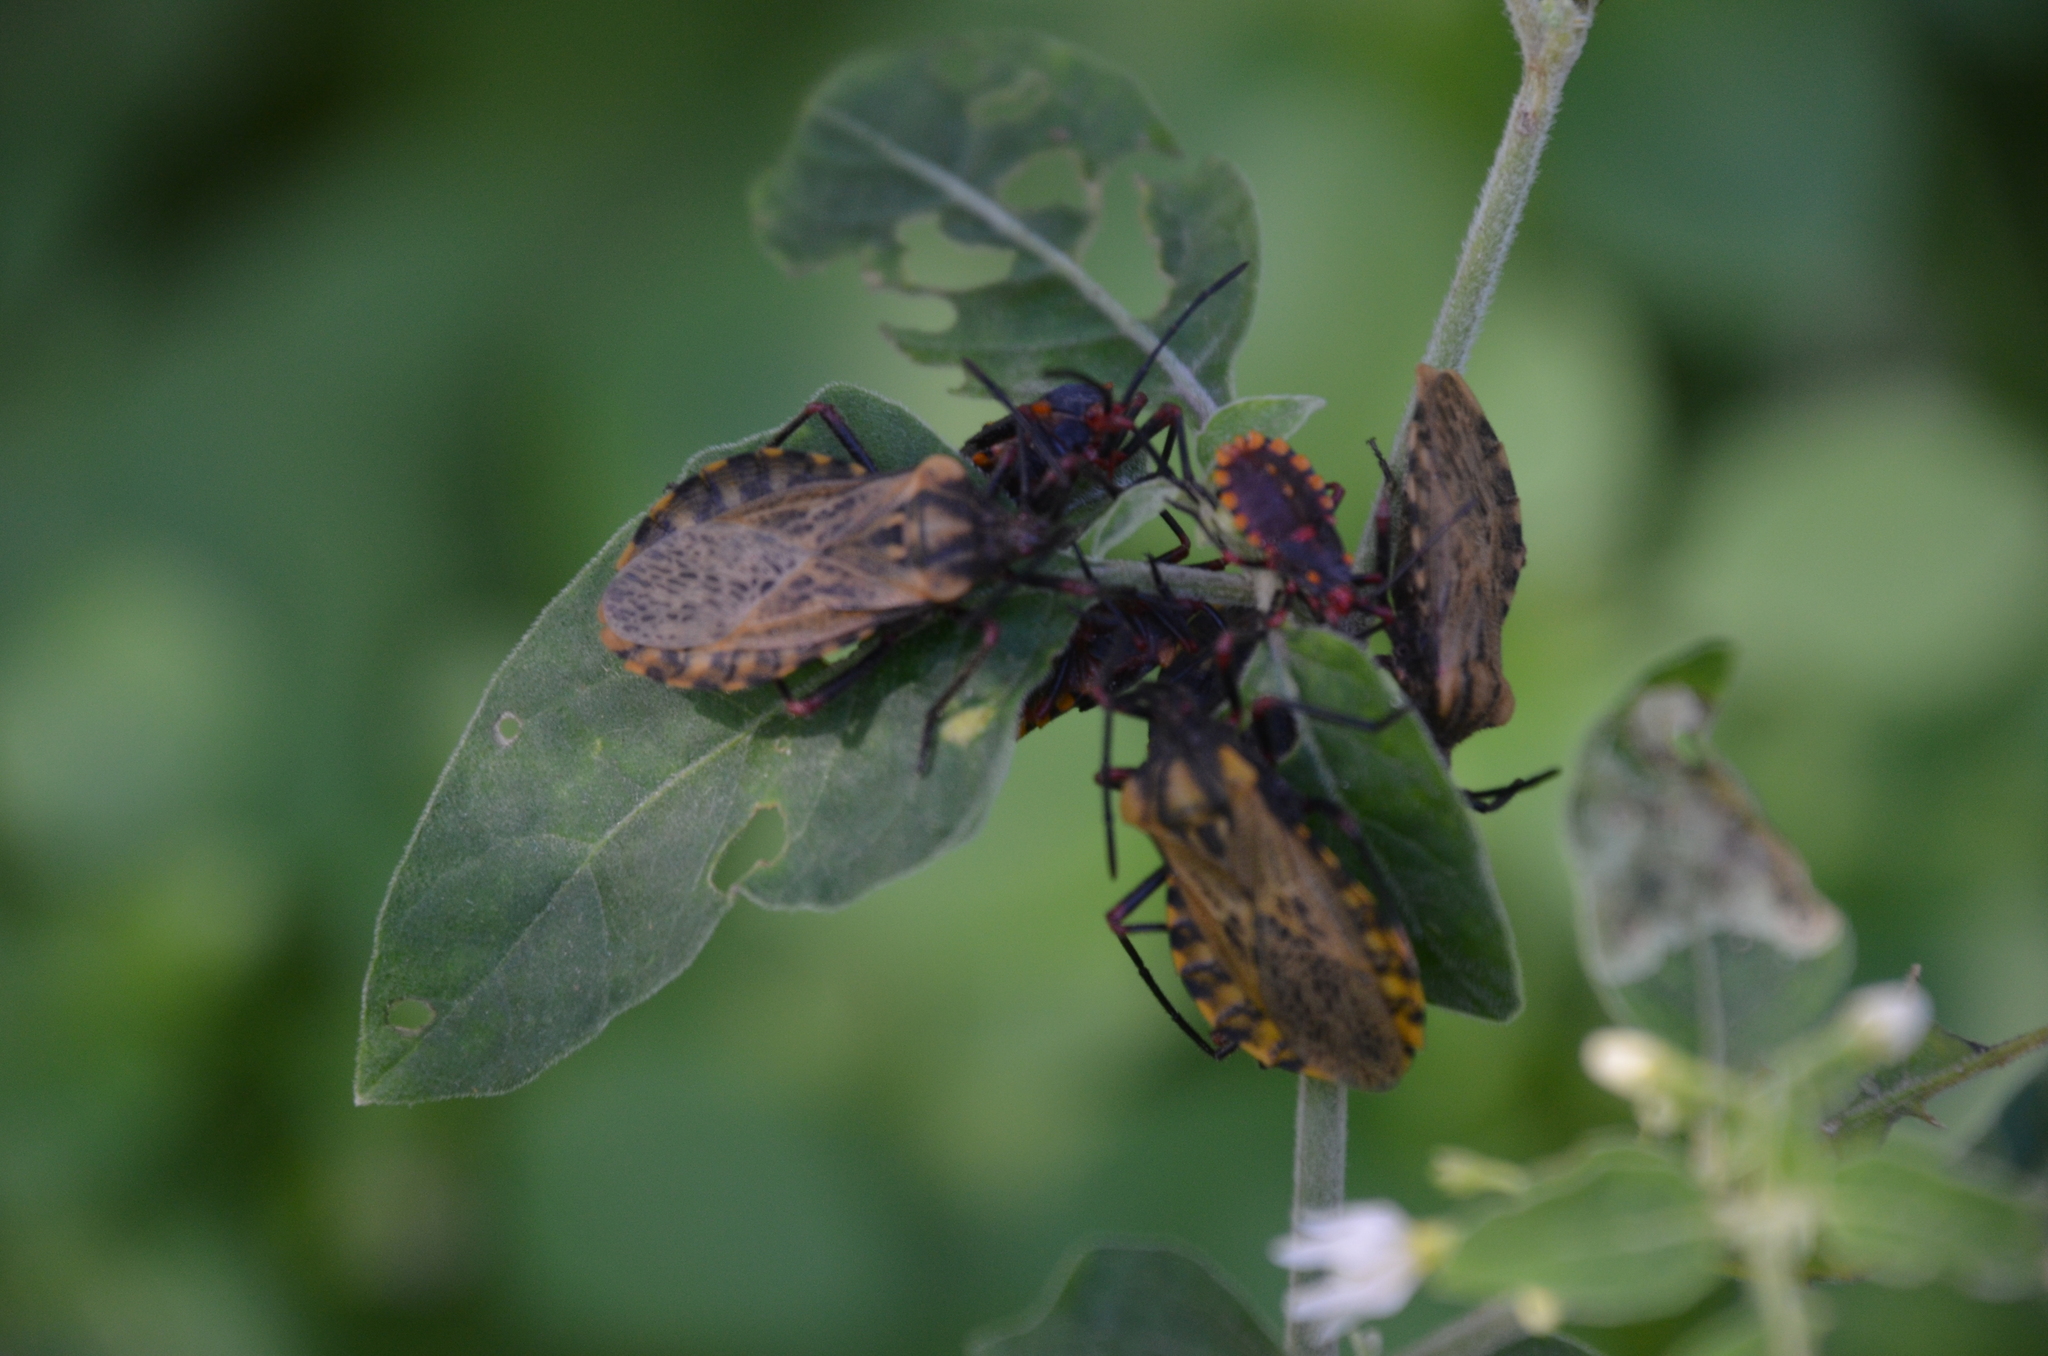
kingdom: Animalia
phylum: Arthropoda
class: Insecta
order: Hemiptera
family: Coreidae
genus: Spartocera
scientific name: Spartocera fusca
